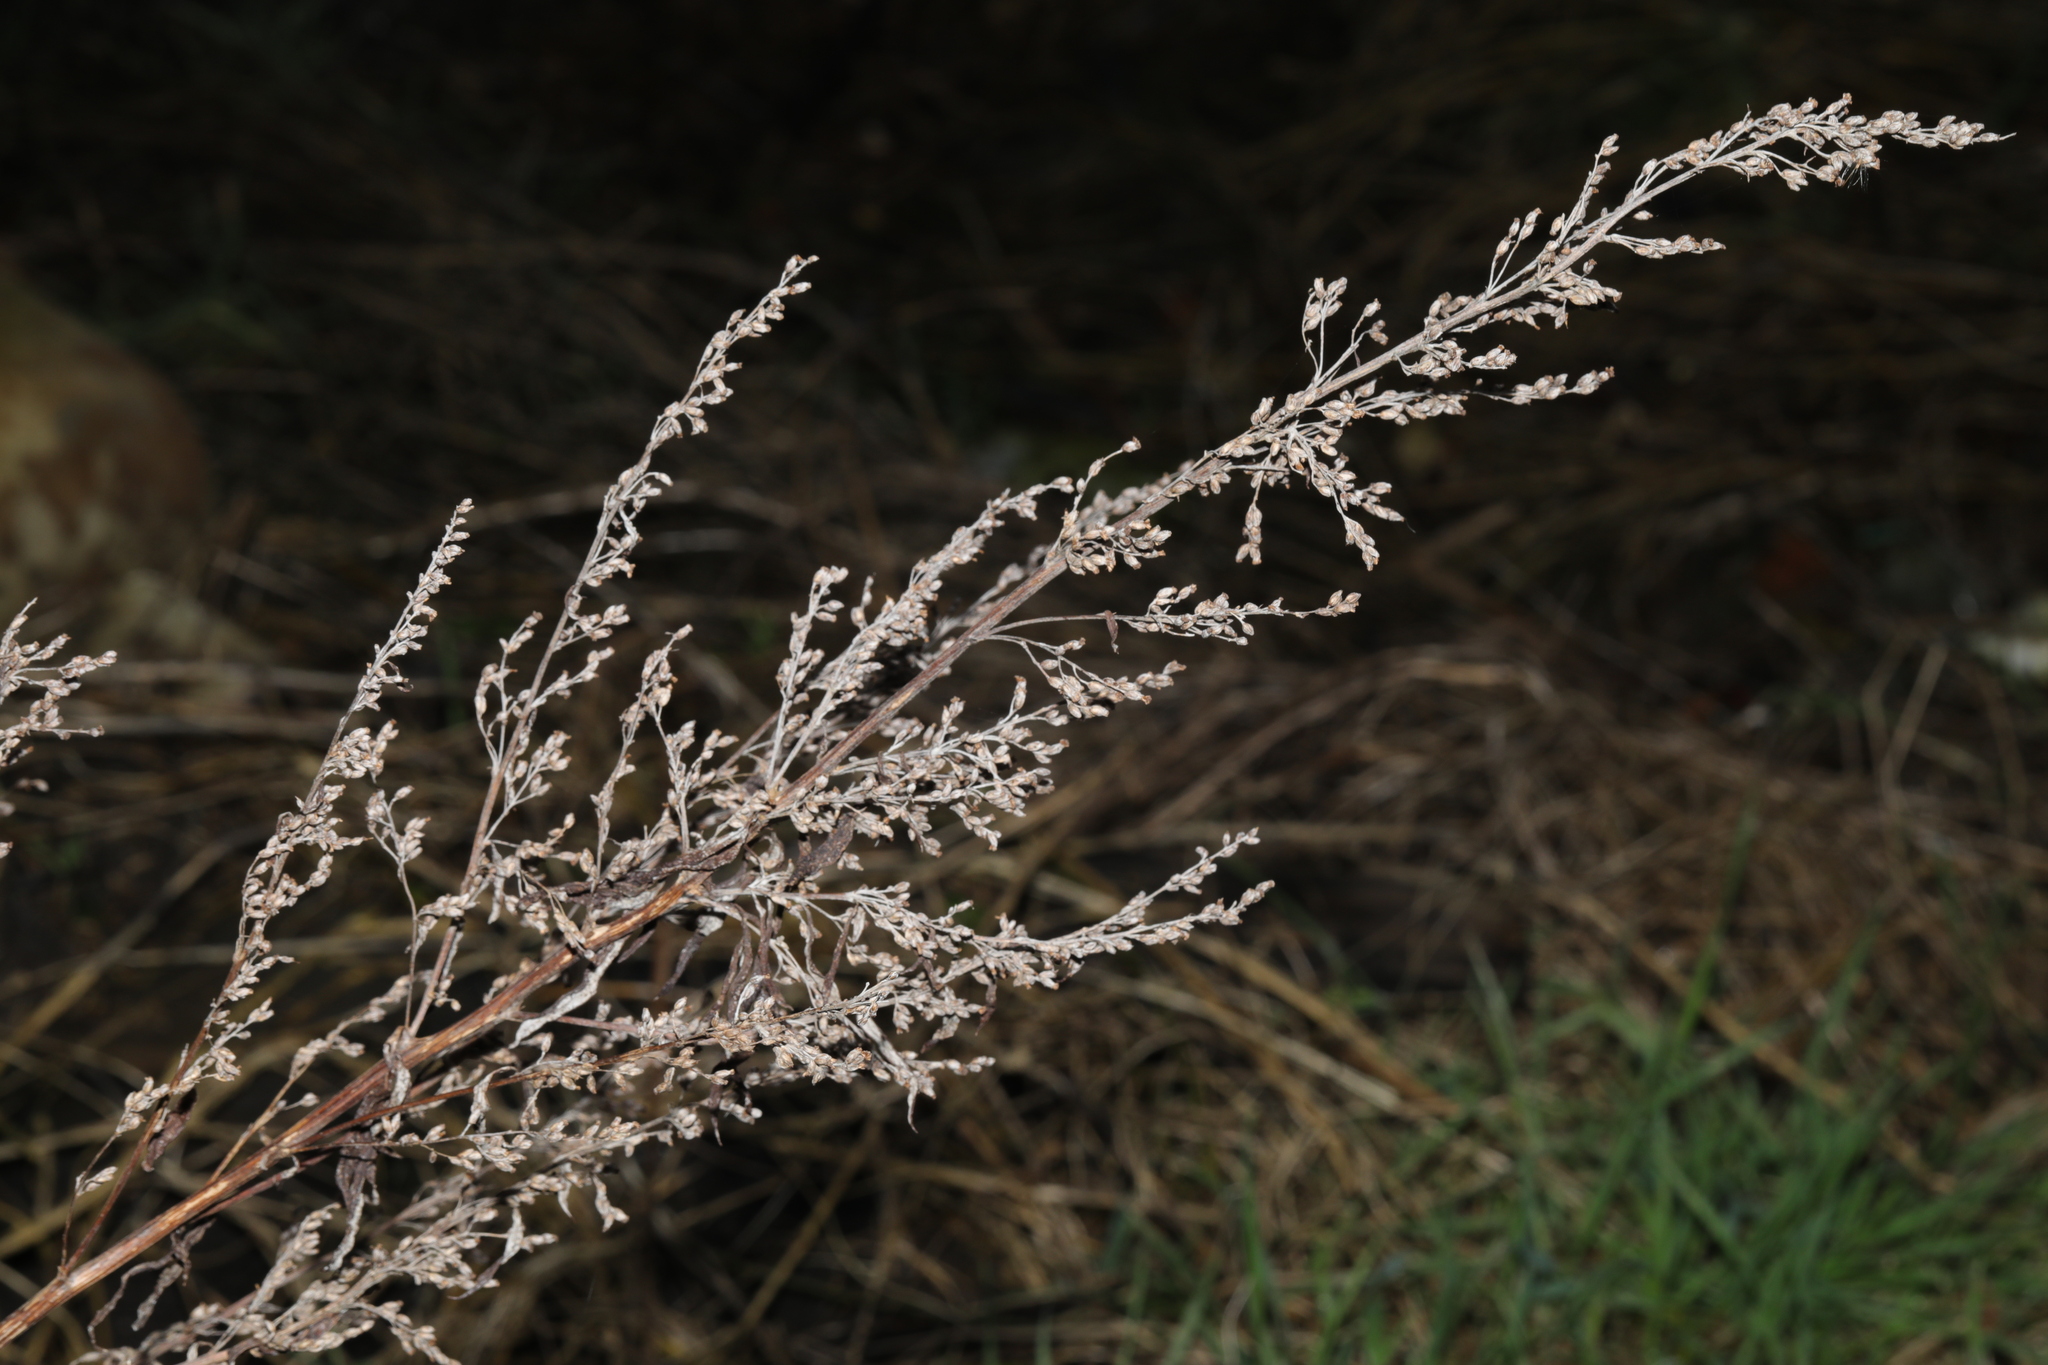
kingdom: Plantae
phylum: Tracheophyta
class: Magnoliopsida
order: Asterales
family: Asteraceae
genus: Artemisia
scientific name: Artemisia vulgaris
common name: Mugwort
